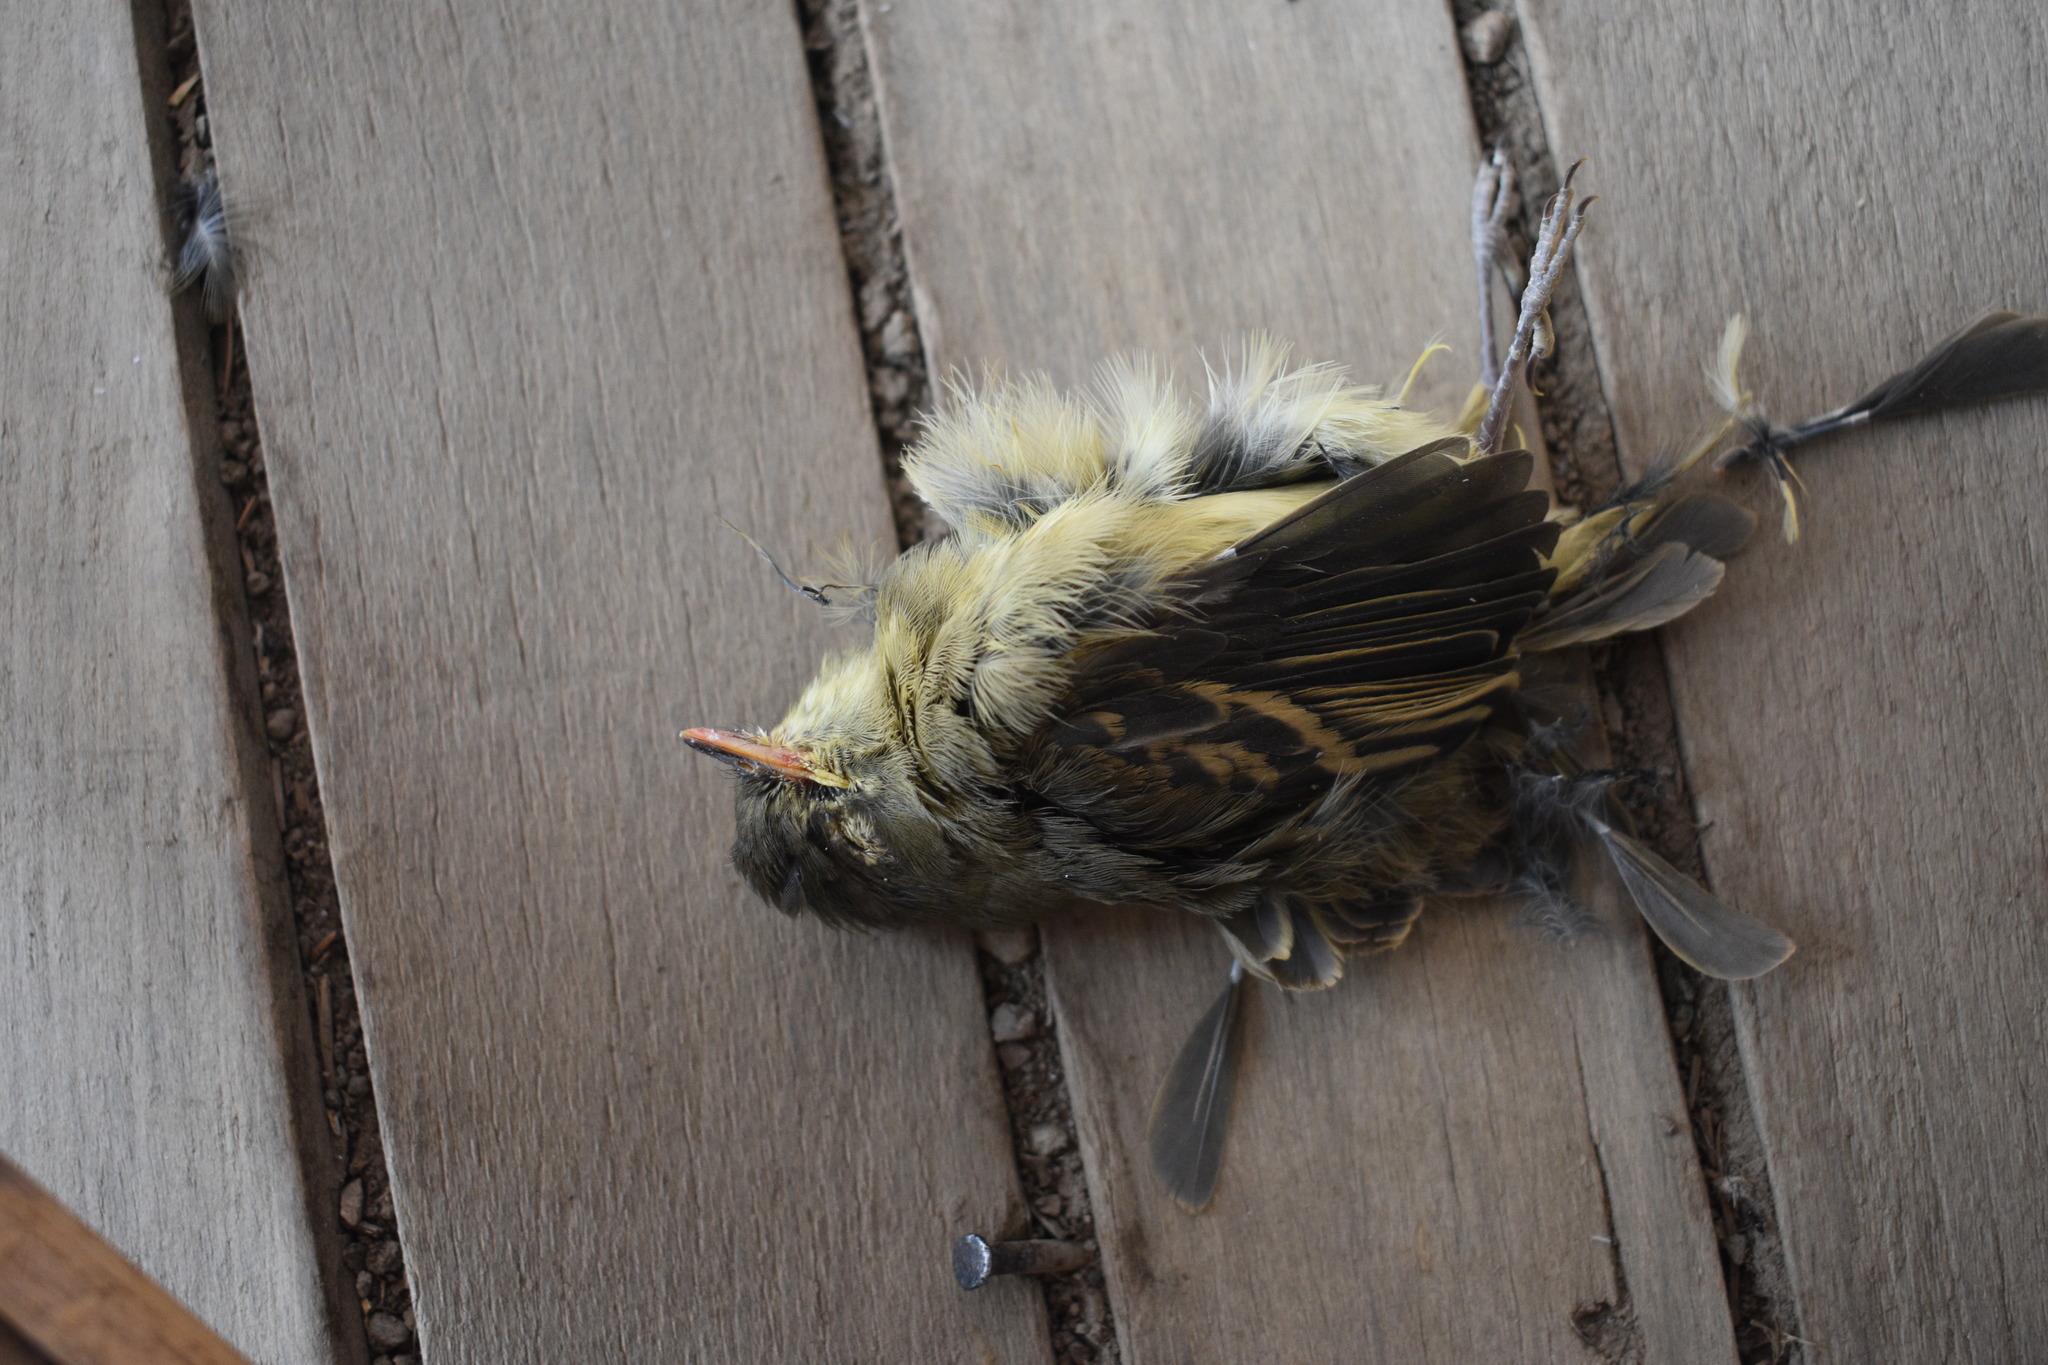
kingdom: Animalia
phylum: Chordata
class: Aves
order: Passeriformes
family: Tyrannidae
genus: Empidonax
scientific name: Empidonax difficilis
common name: Pacific-slope flycatcher
